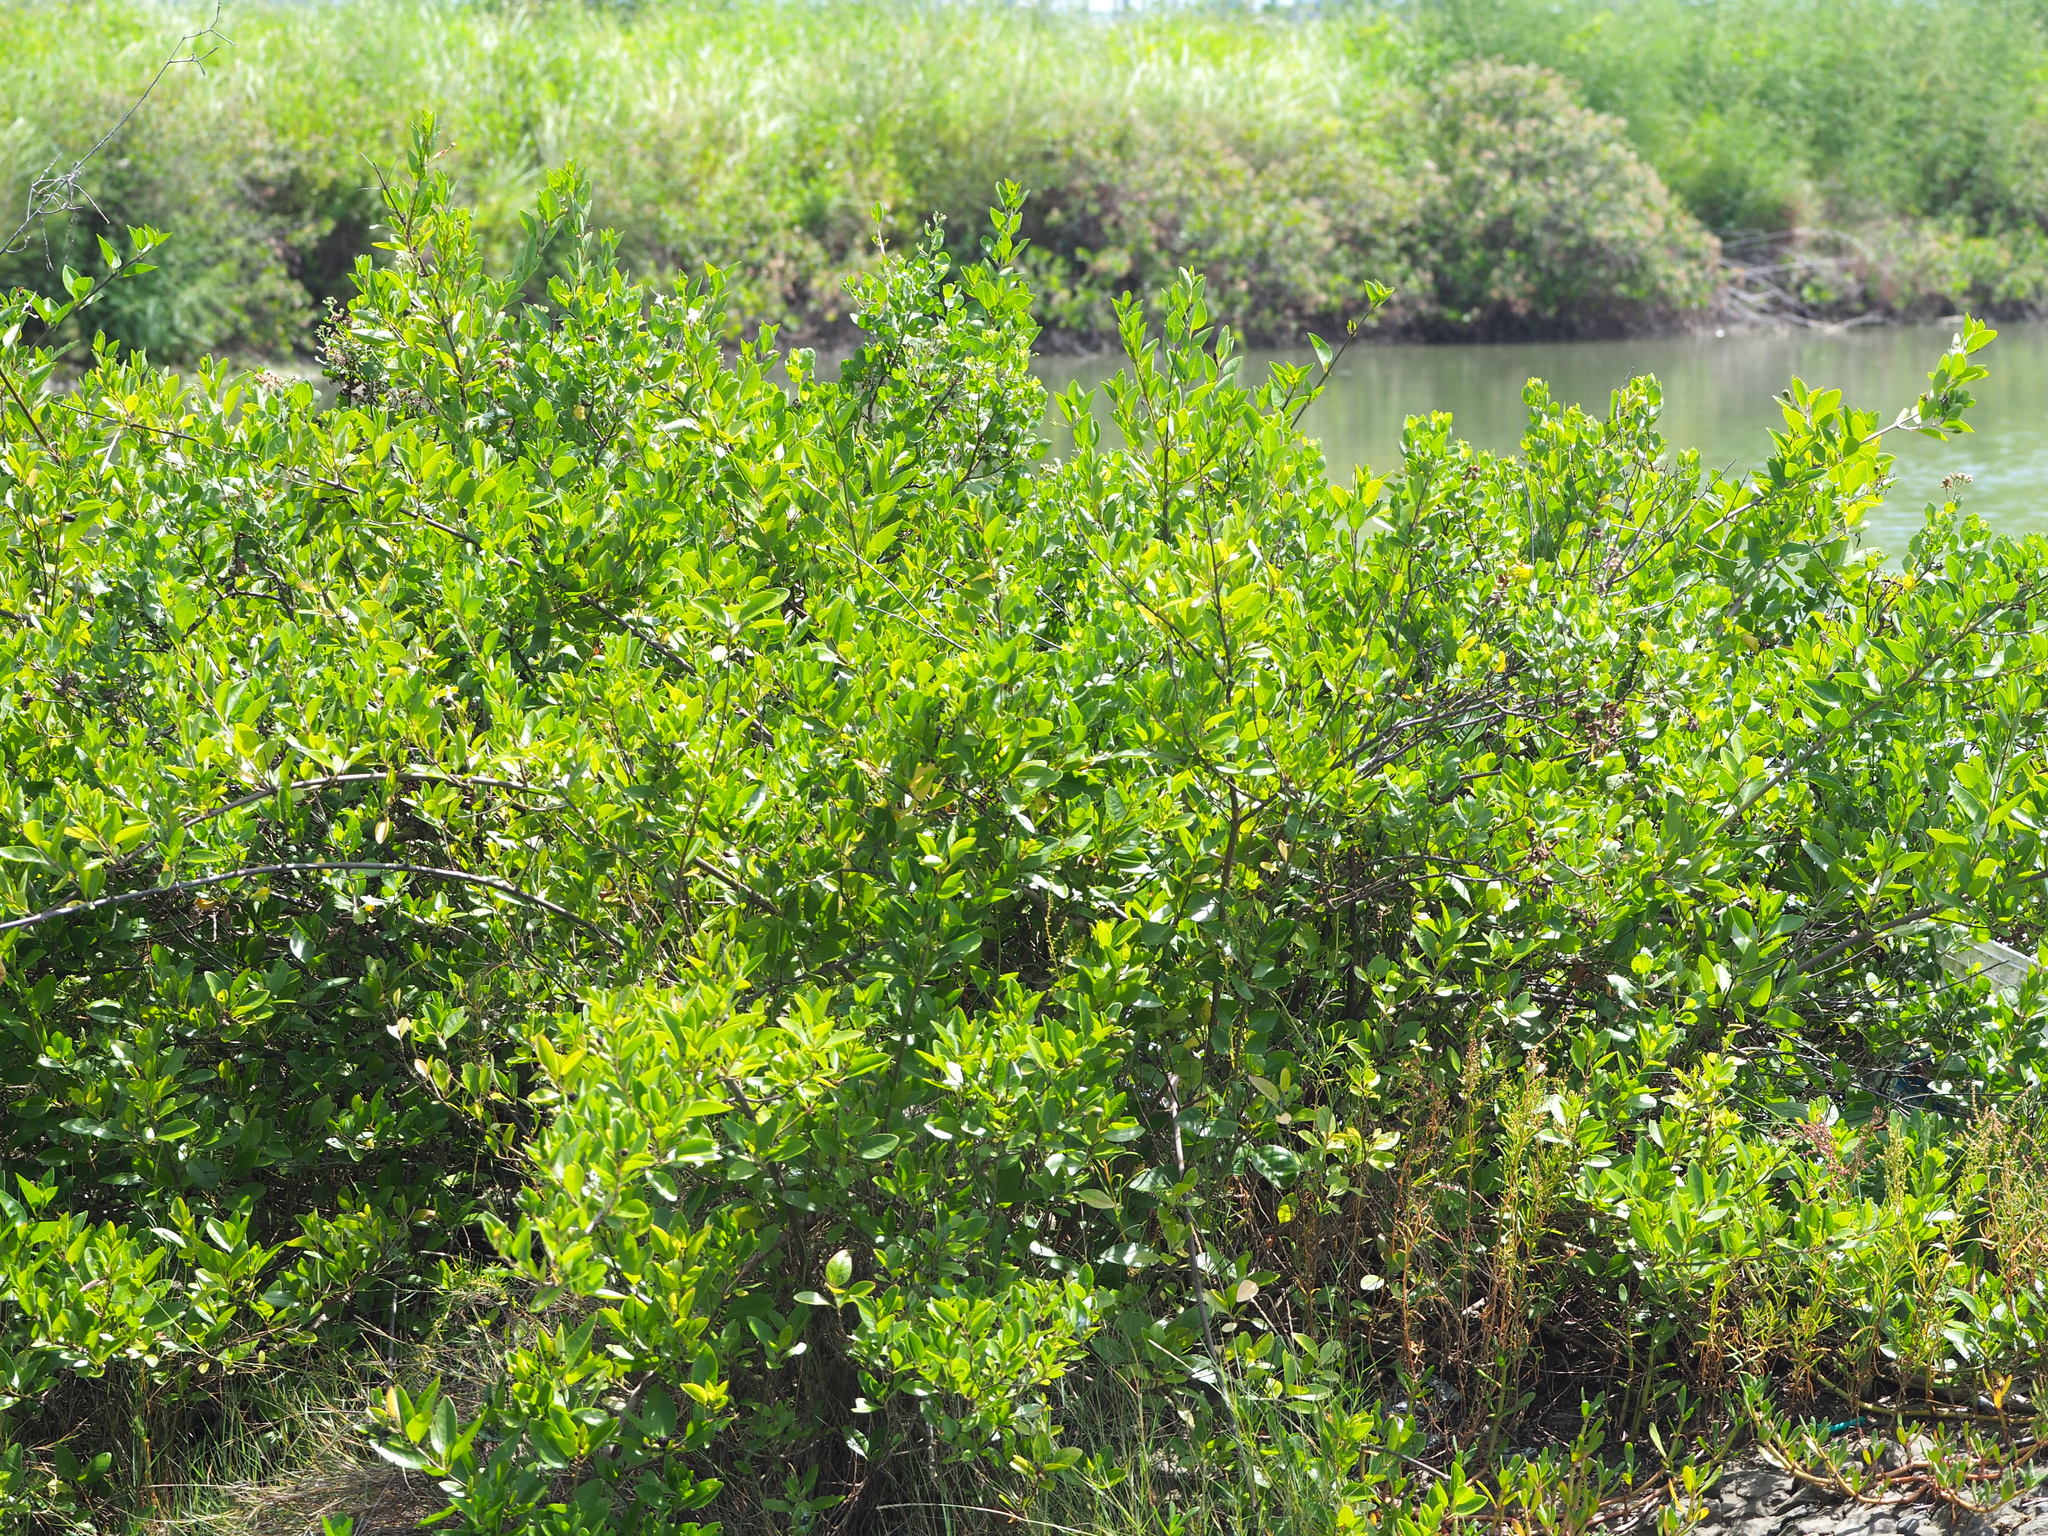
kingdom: Plantae
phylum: Tracheophyta
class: Magnoliopsida
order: Lamiales
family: Lamiaceae
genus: Volkameria
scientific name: Volkameria inermis
